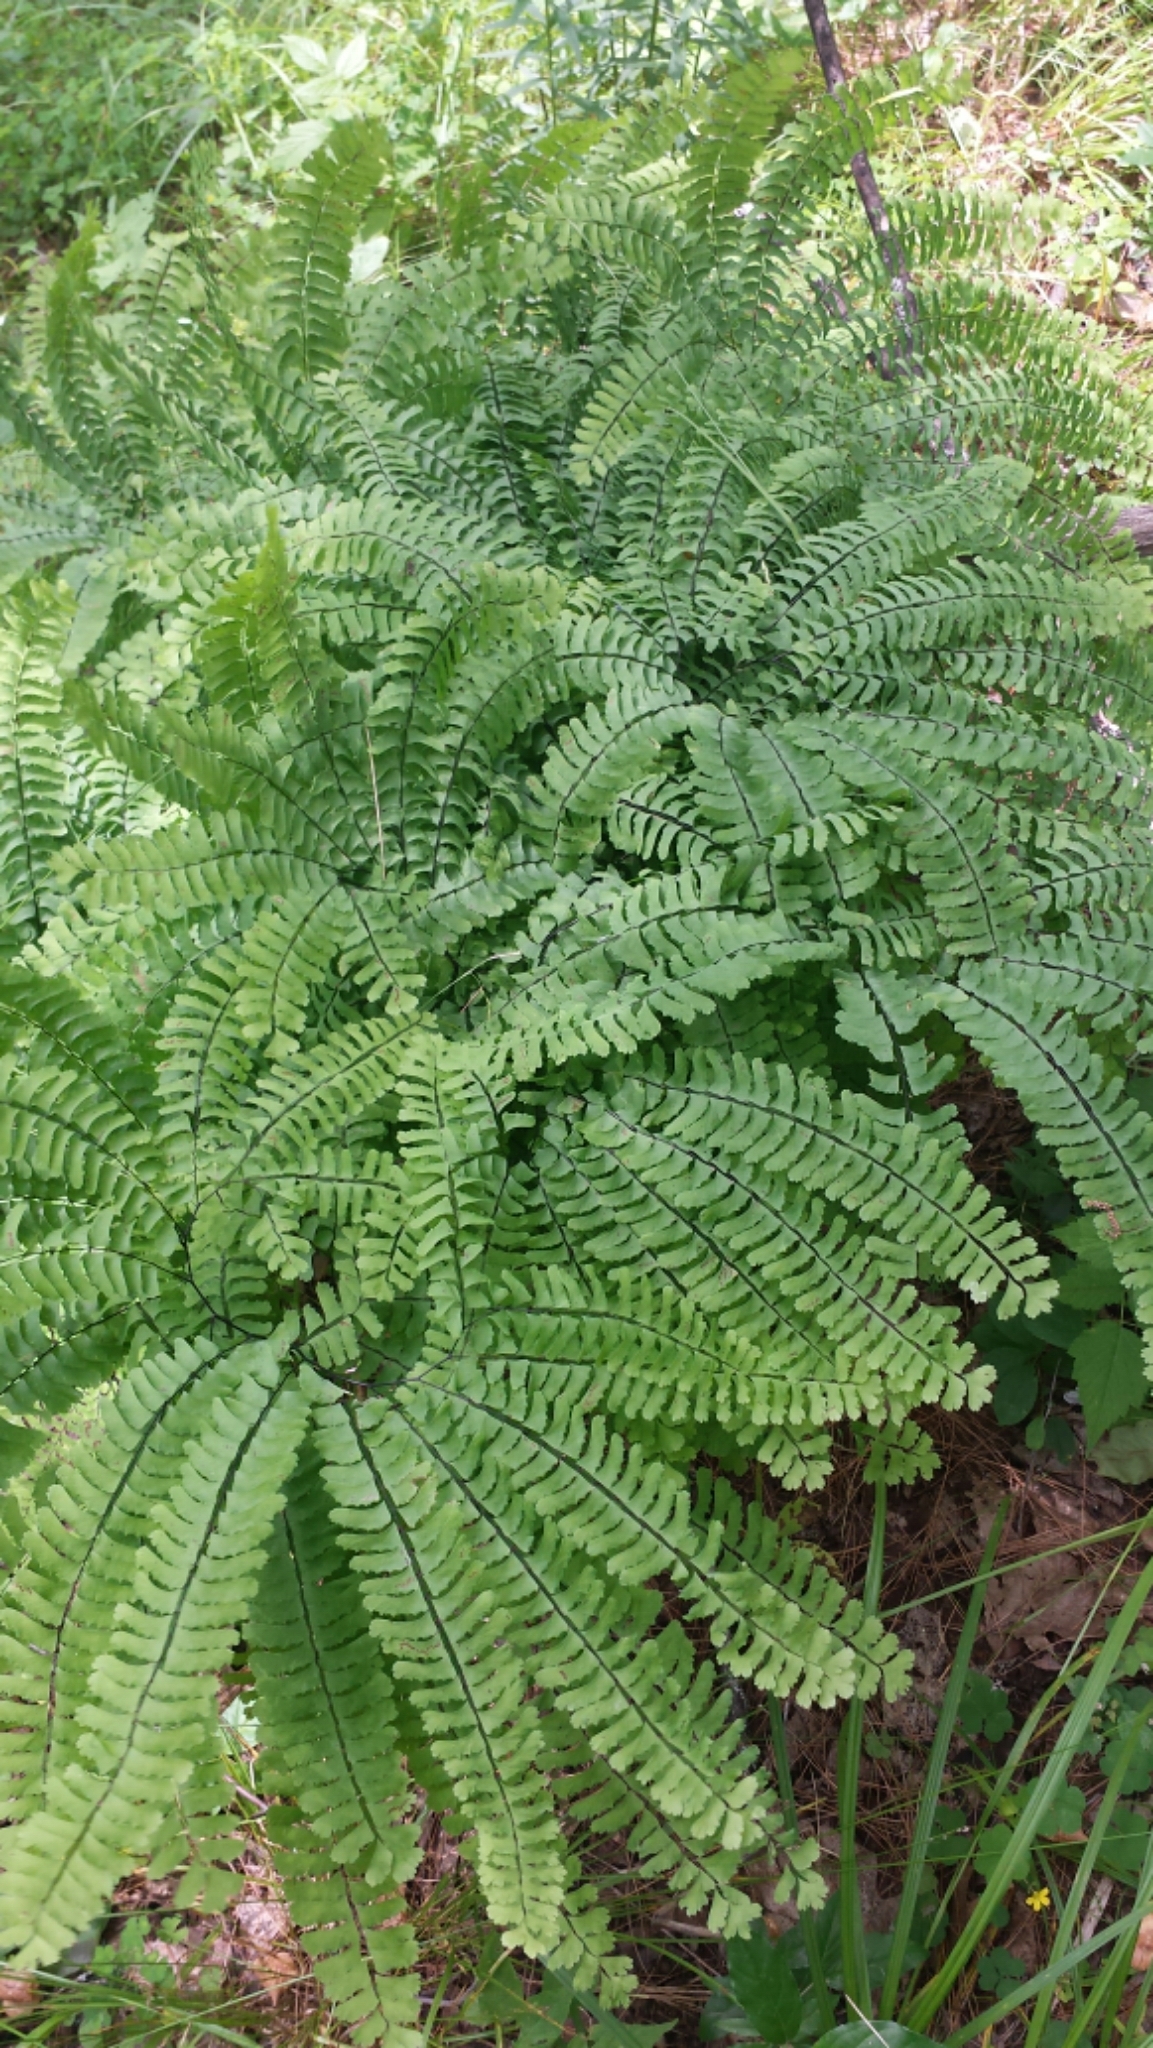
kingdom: Plantae
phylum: Tracheophyta
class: Polypodiopsida
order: Polypodiales
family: Pteridaceae
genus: Adiantum
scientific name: Adiantum pedatum
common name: Five-finger fern
